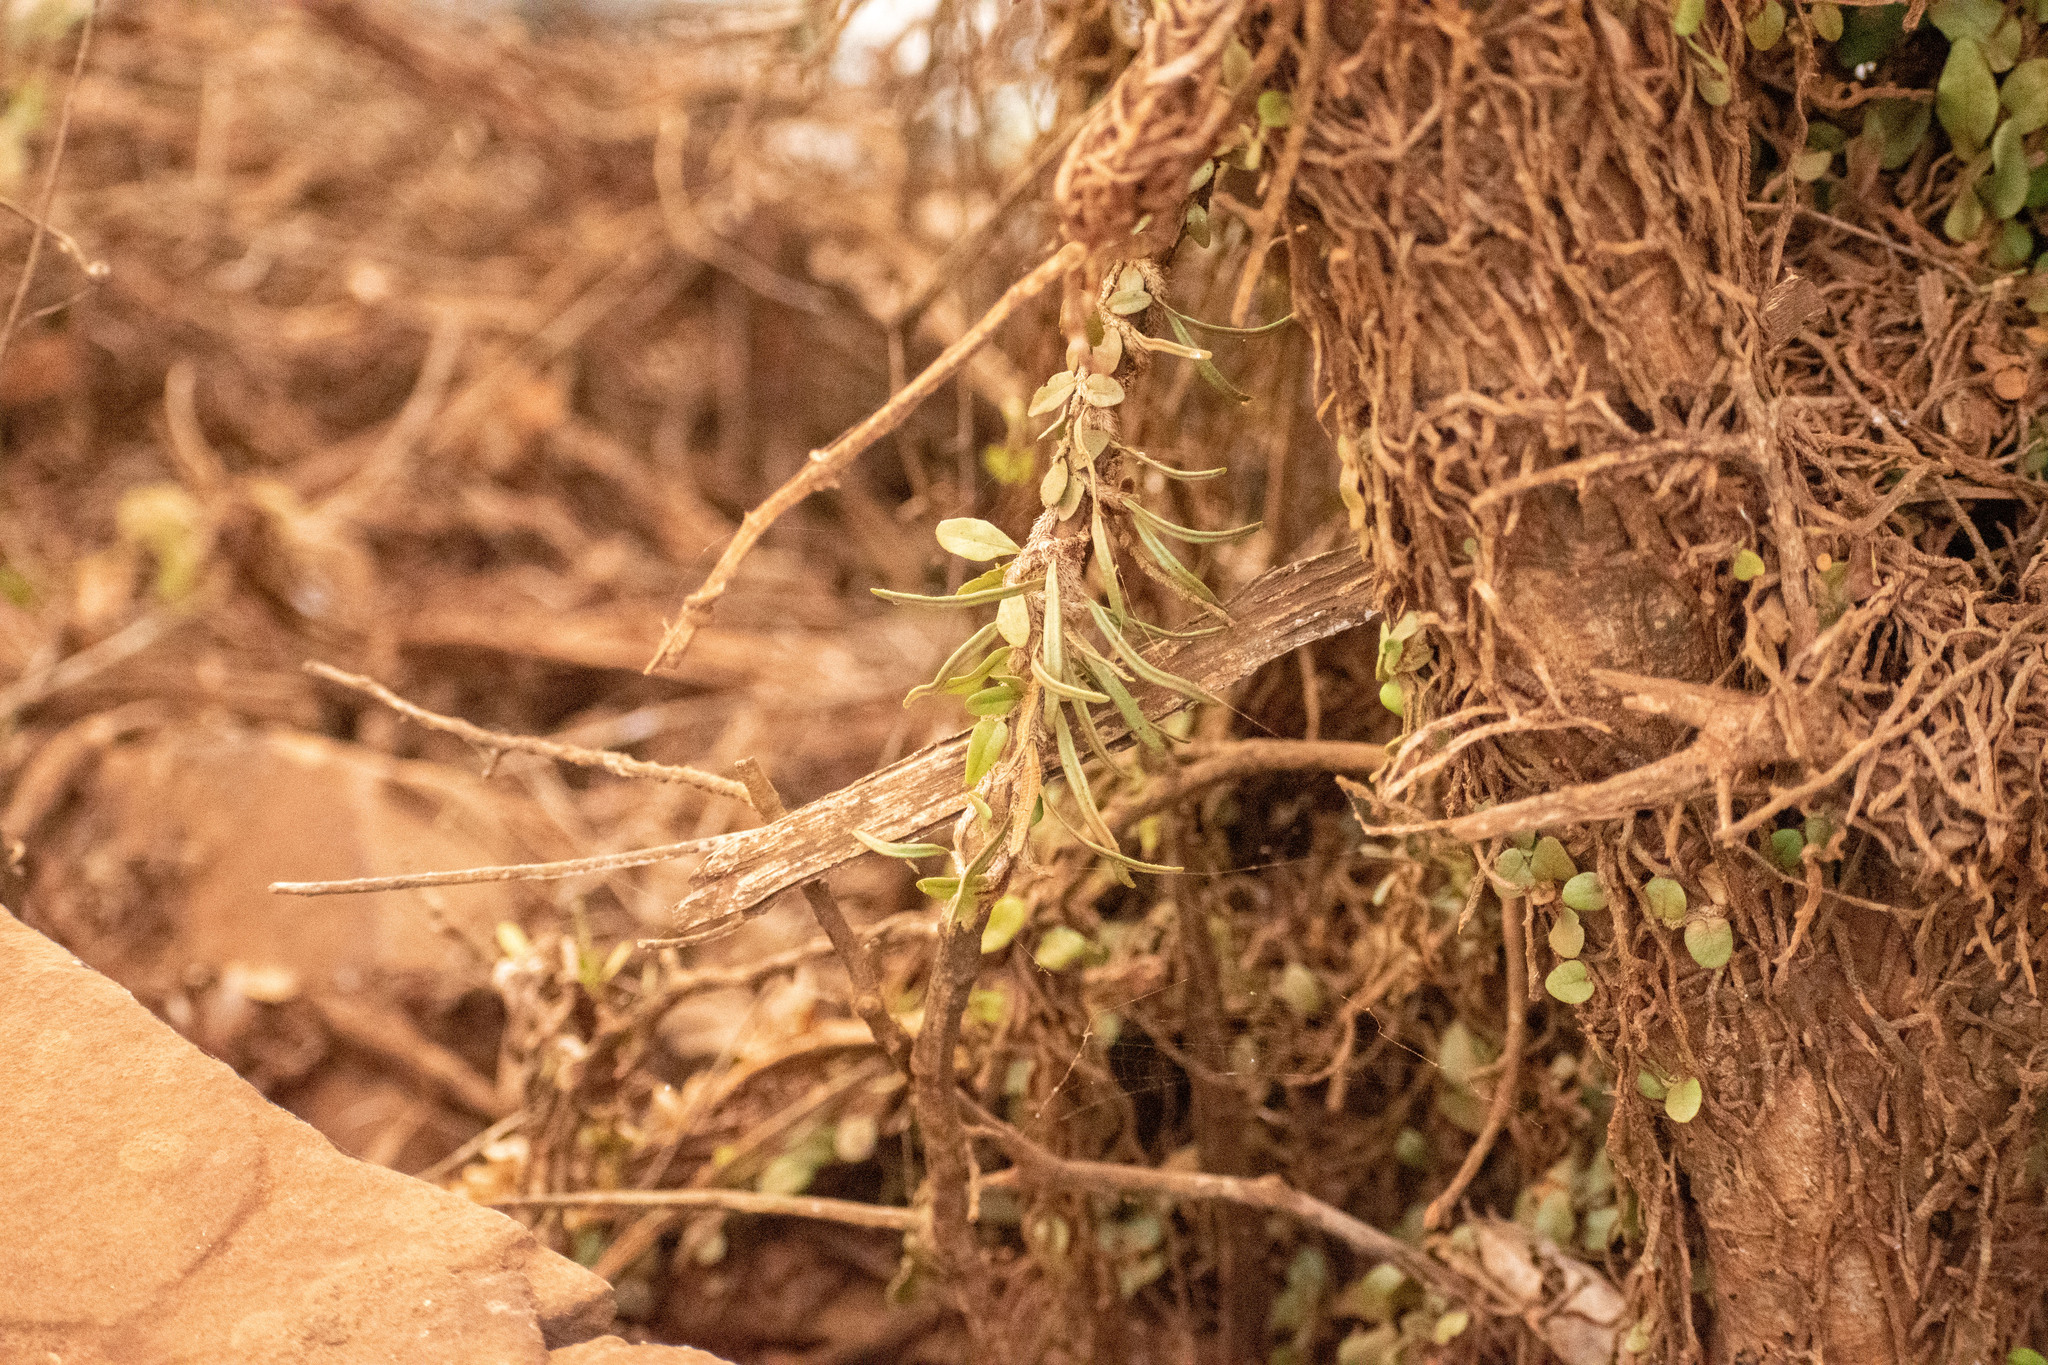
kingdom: Plantae
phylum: Tracheophyta
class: Polypodiopsida
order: Polypodiales
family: Polypodiaceae
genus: Microgramma
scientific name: Microgramma vaccinifolia
